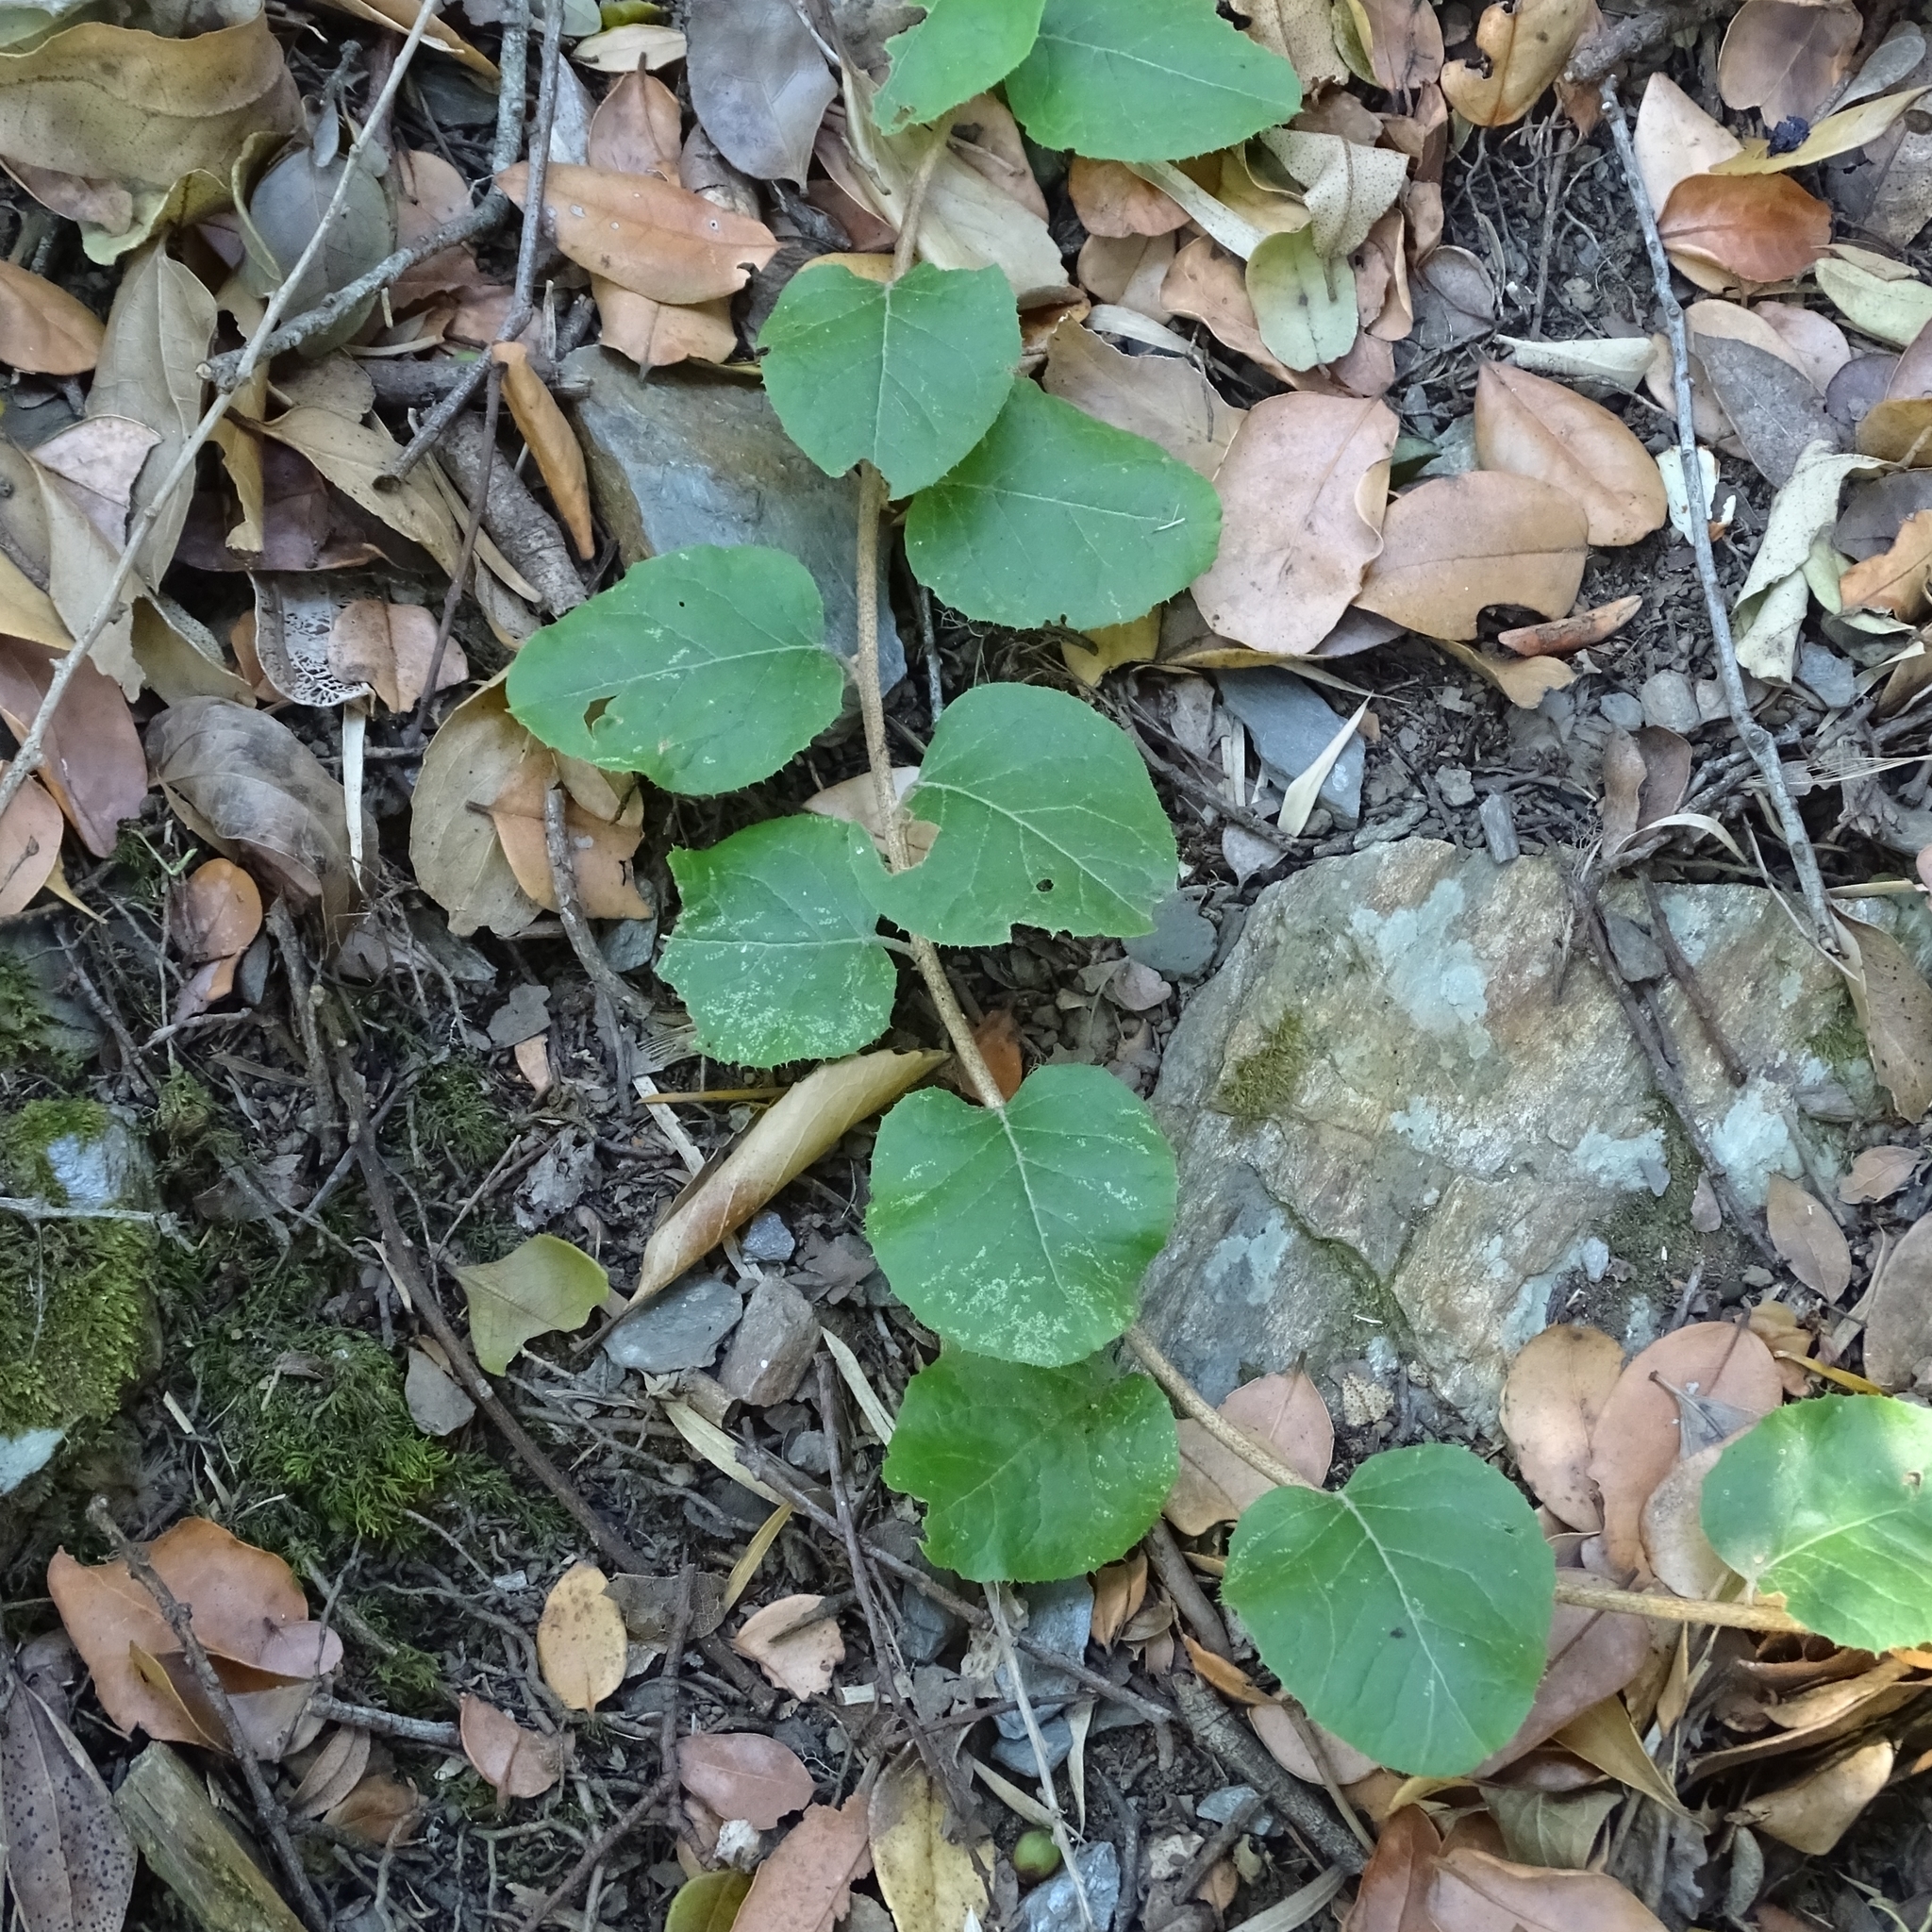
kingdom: Plantae
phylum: Tracheophyta
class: Magnoliopsida
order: Asterales
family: Asteraceae
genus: Proustia
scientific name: Proustia pyrifolia
